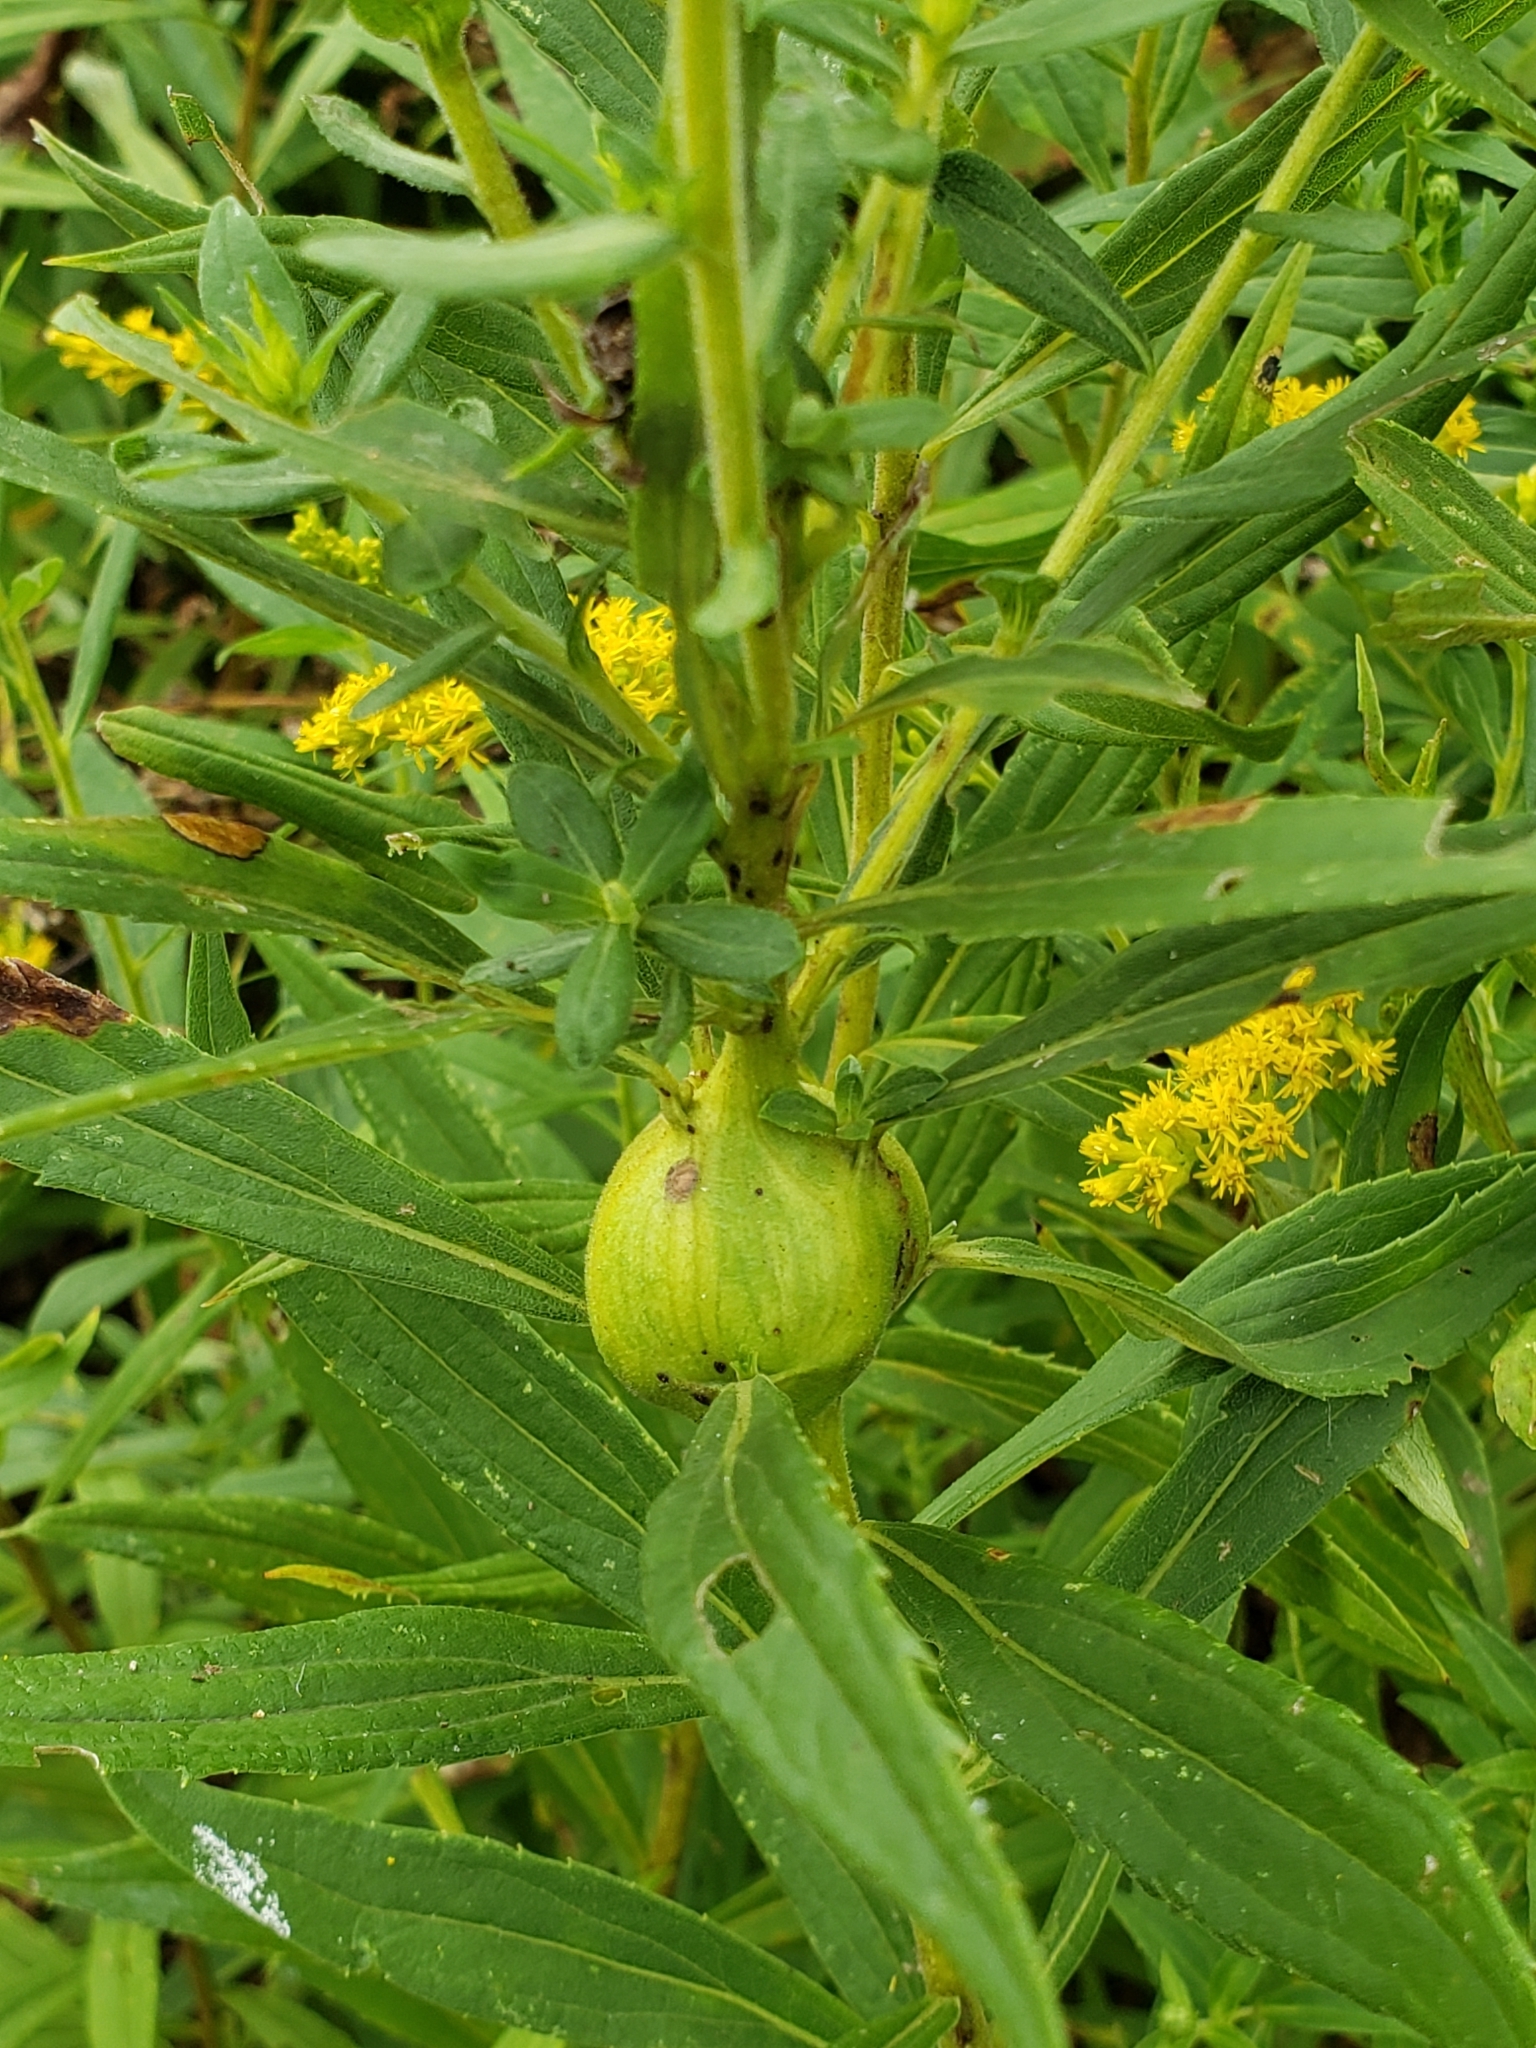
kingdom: Animalia
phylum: Arthropoda
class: Insecta
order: Diptera
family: Tephritidae
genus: Eurosta
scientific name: Eurosta solidaginis
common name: Goldenrod gall fly
